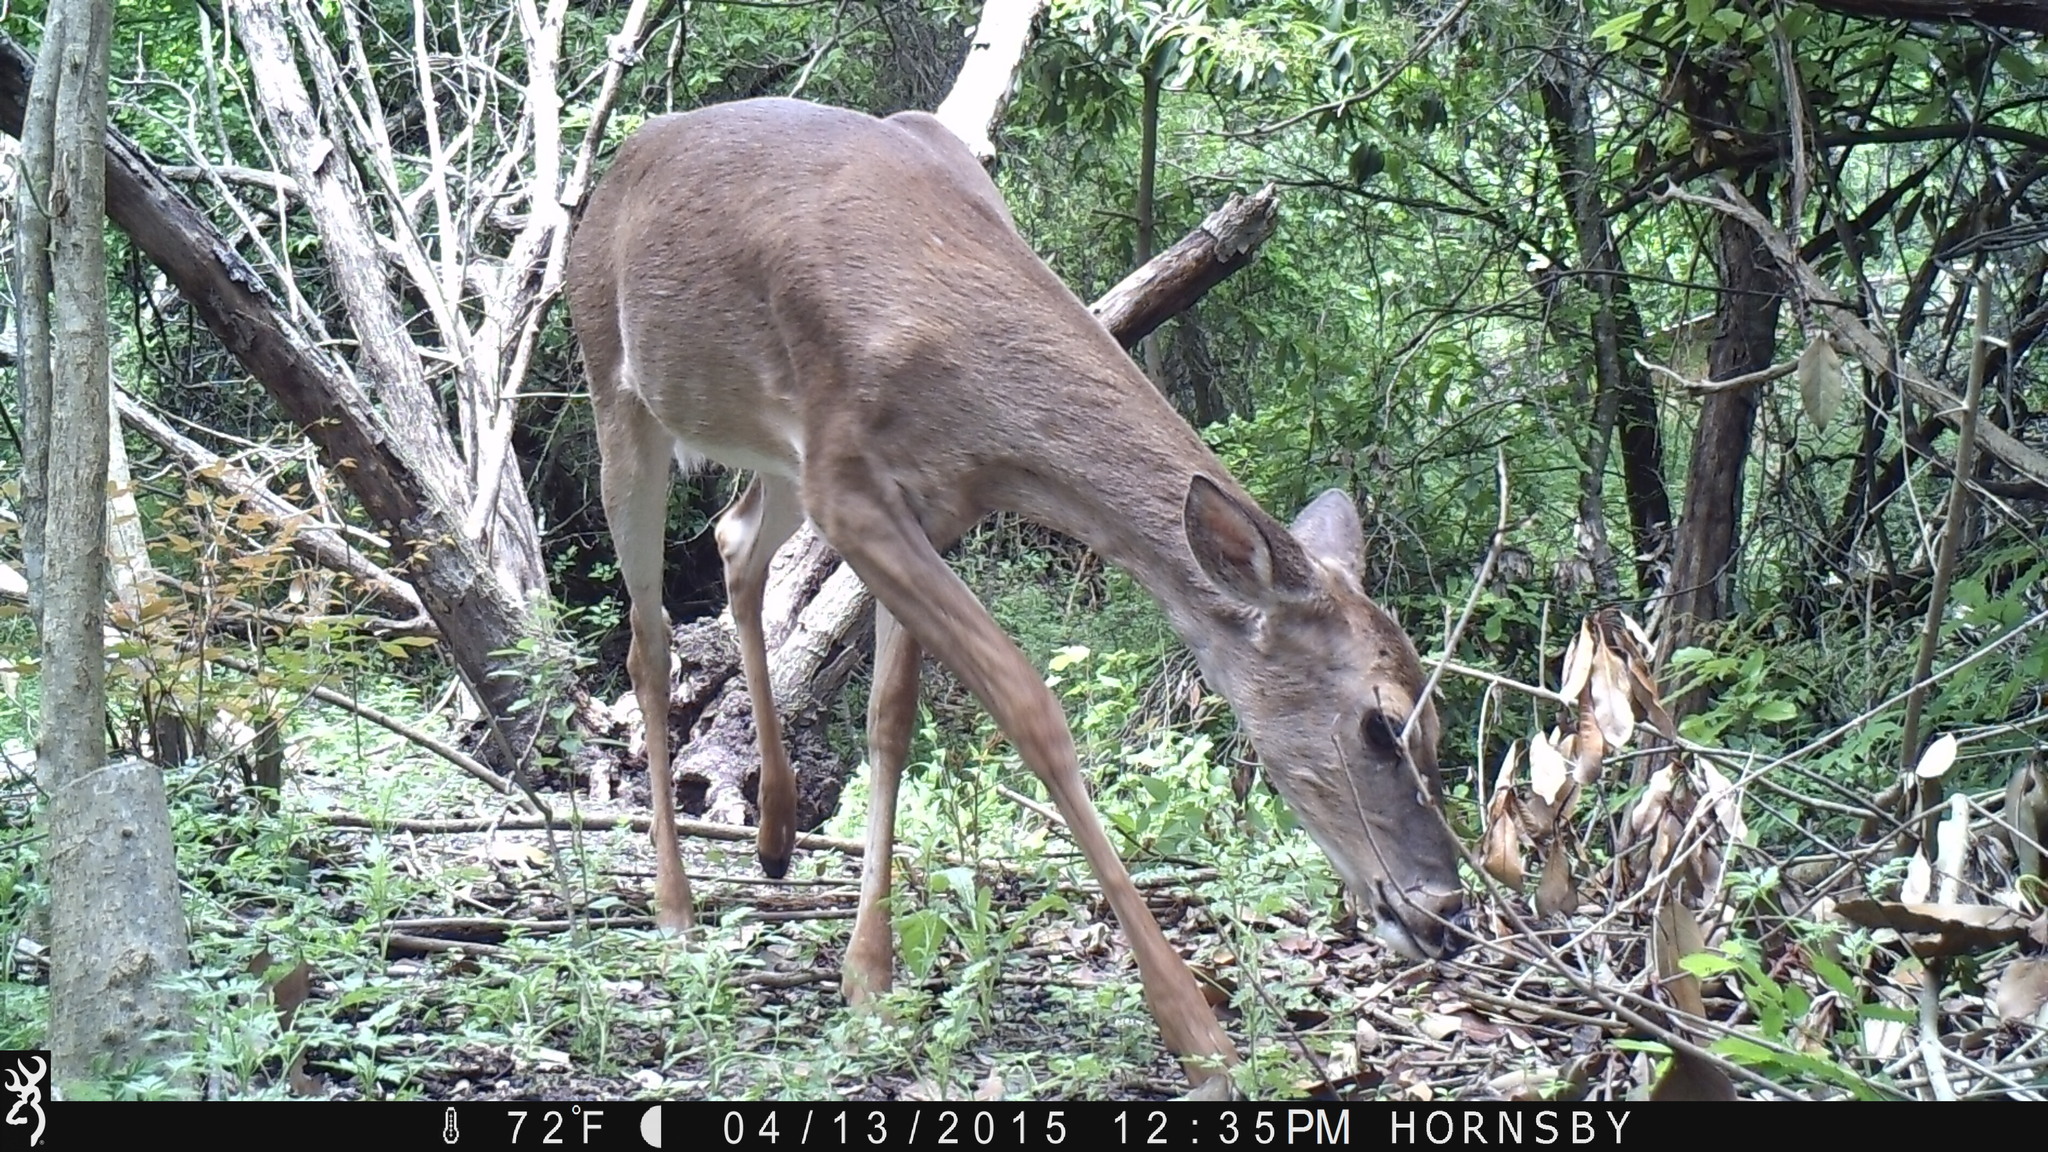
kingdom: Animalia
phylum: Chordata
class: Mammalia
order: Artiodactyla
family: Cervidae
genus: Odocoileus
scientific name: Odocoileus virginianus
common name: White-tailed deer
